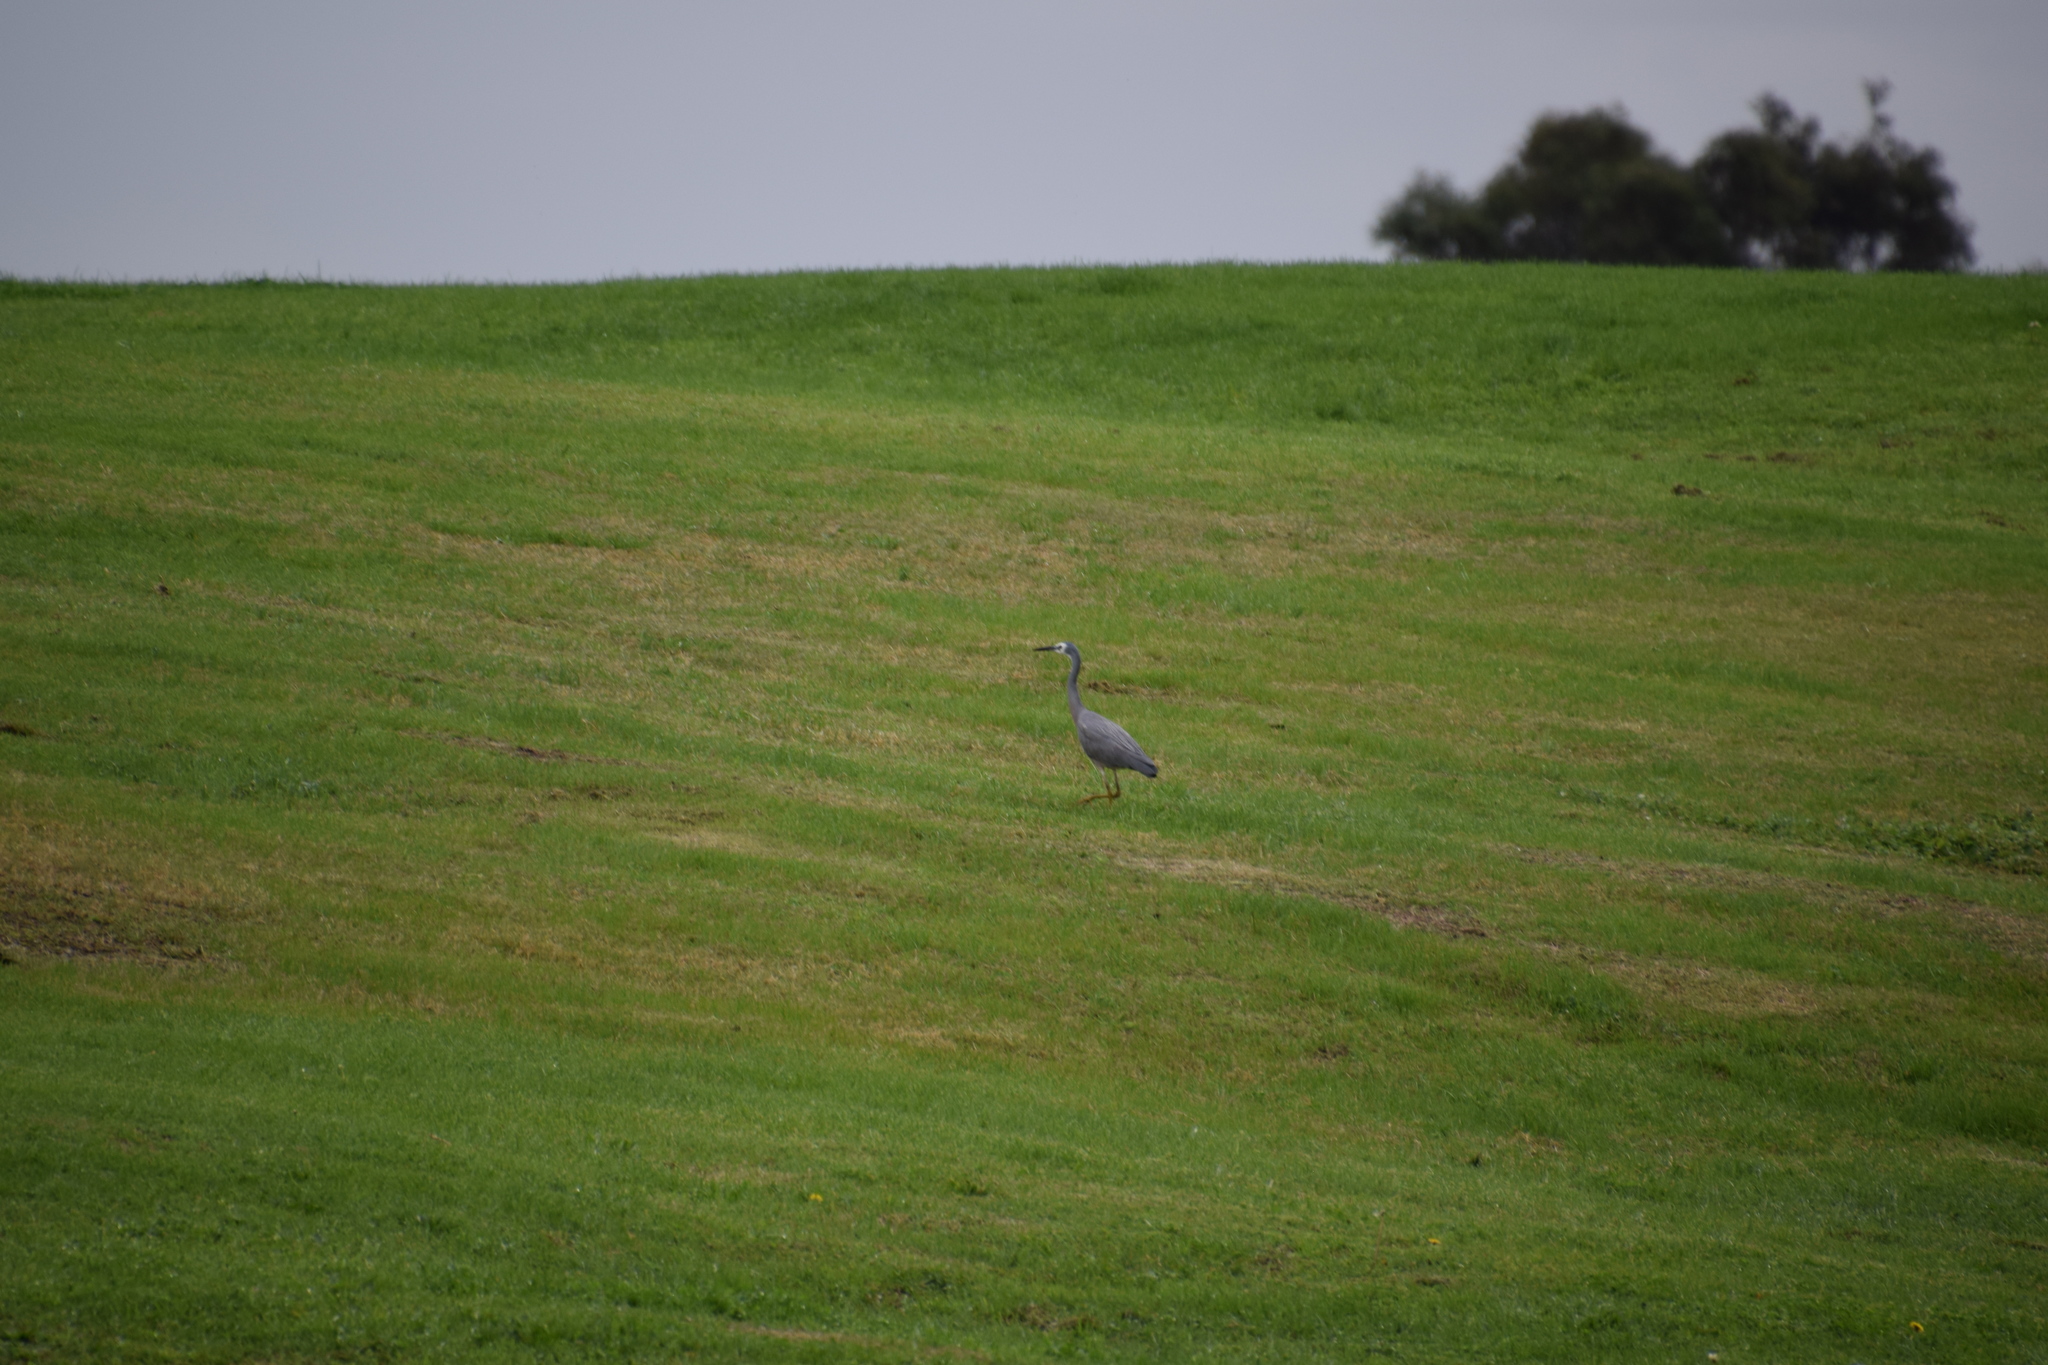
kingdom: Animalia
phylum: Chordata
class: Aves
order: Pelecaniformes
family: Ardeidae
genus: Egretta
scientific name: Egretta novaehollandiae
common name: White-faced heron
